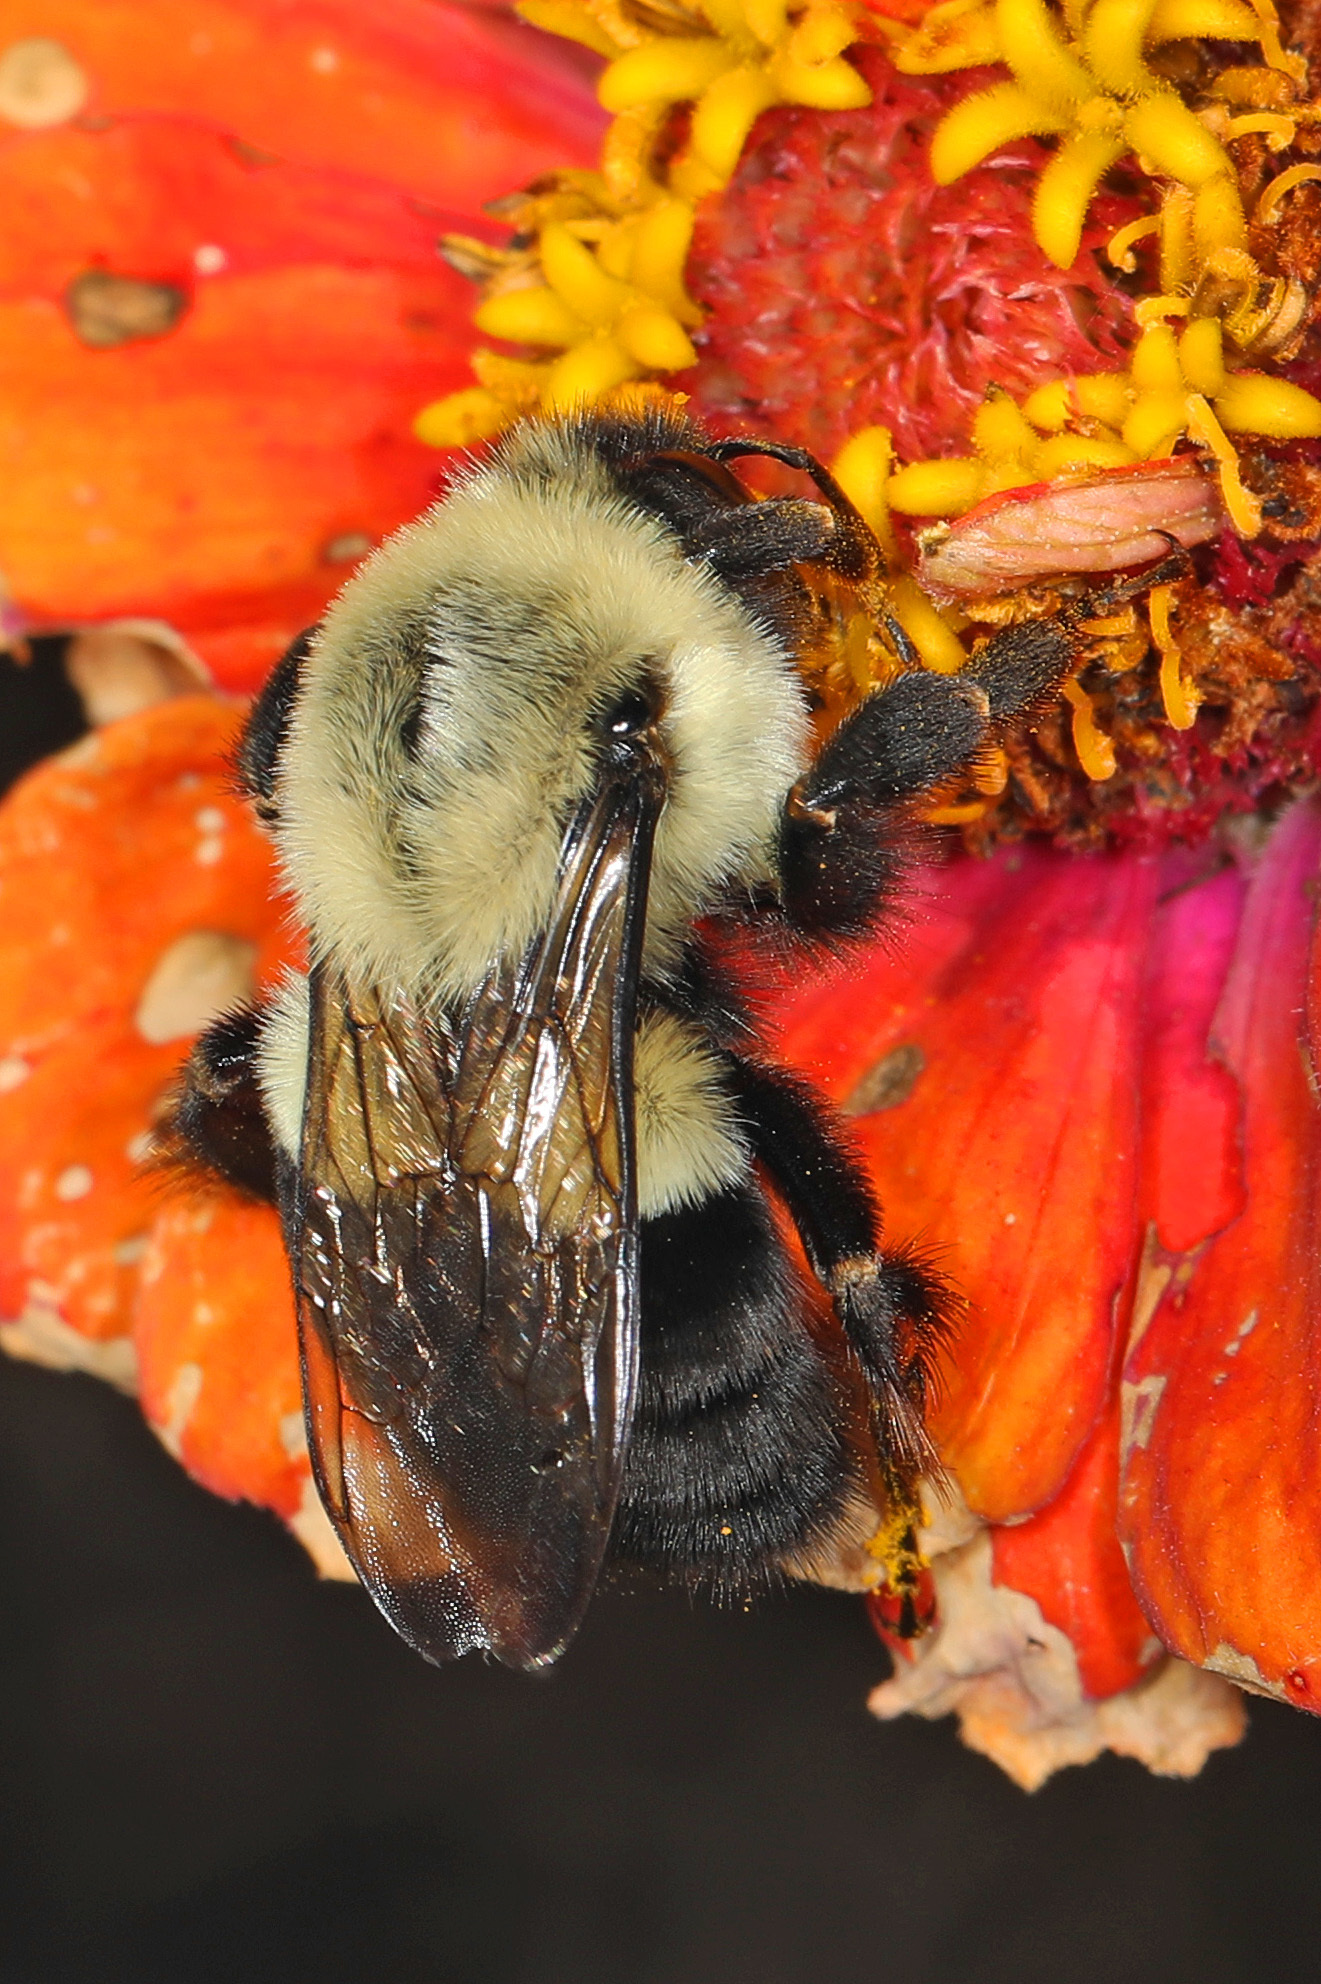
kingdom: Animalia
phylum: Arthropoda
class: Insecta
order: Hymenoptera
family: Apidae
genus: Bombus
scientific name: Bombus impatiens
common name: Common eastern bumble bee
